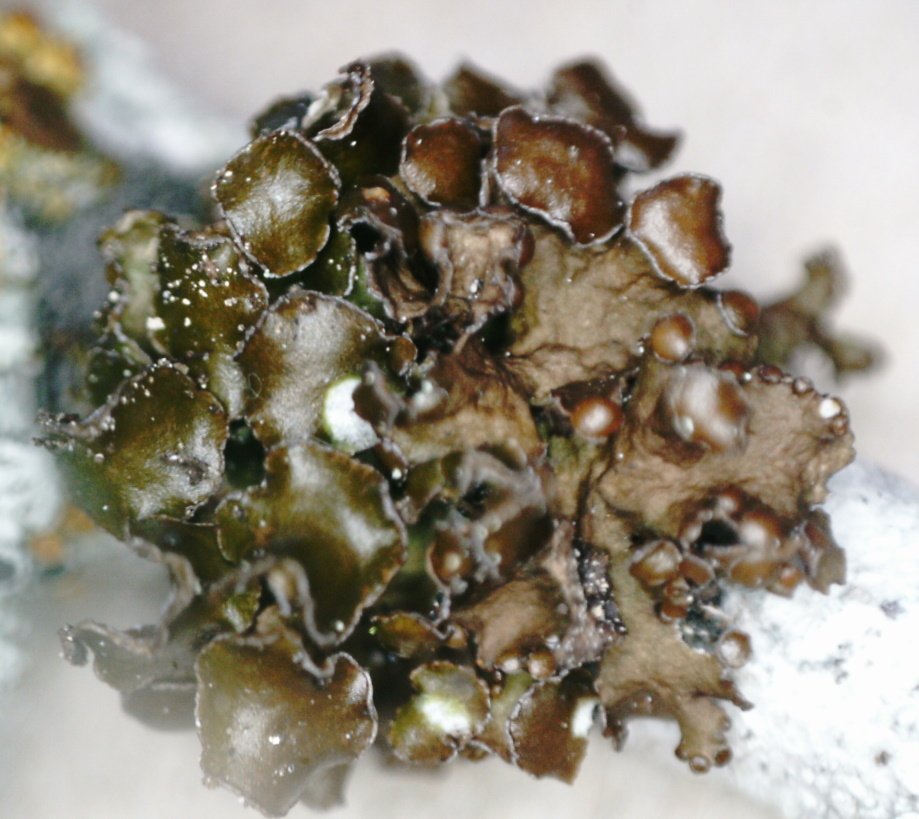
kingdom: Fungi
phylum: Ascomycota
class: Lecanoromycetes
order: Lecanorales
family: Parmeliaceae
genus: Cetraria
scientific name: Cetraria sepincola
